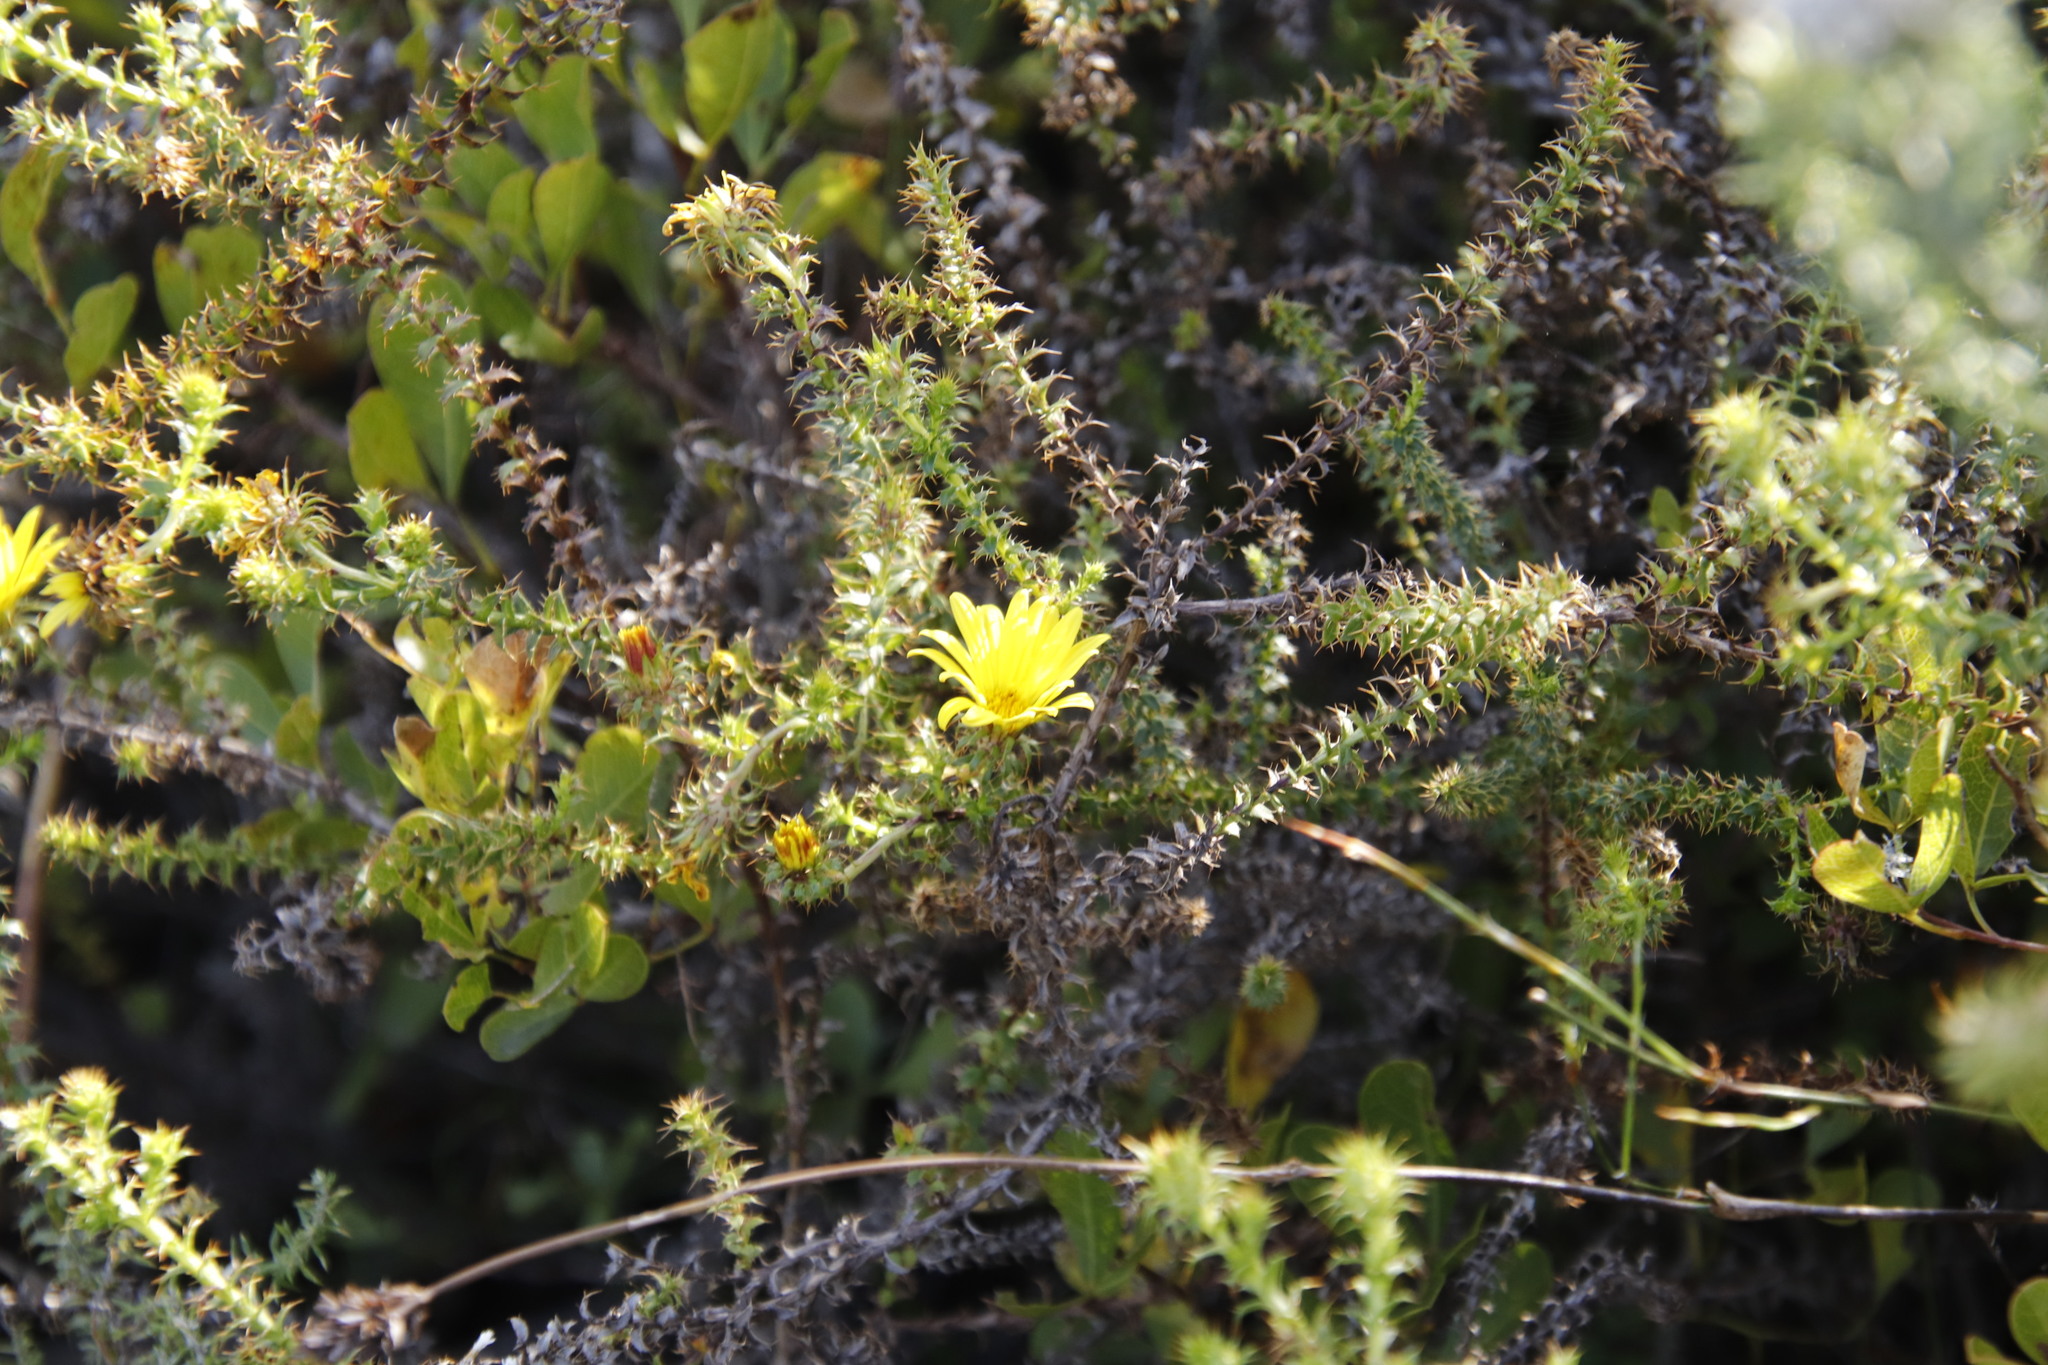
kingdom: Plantae
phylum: Tracheophyta
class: Magnoliopsida
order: Asterales
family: Asteraceae
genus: Cullumia
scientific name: Cullumia setosa
